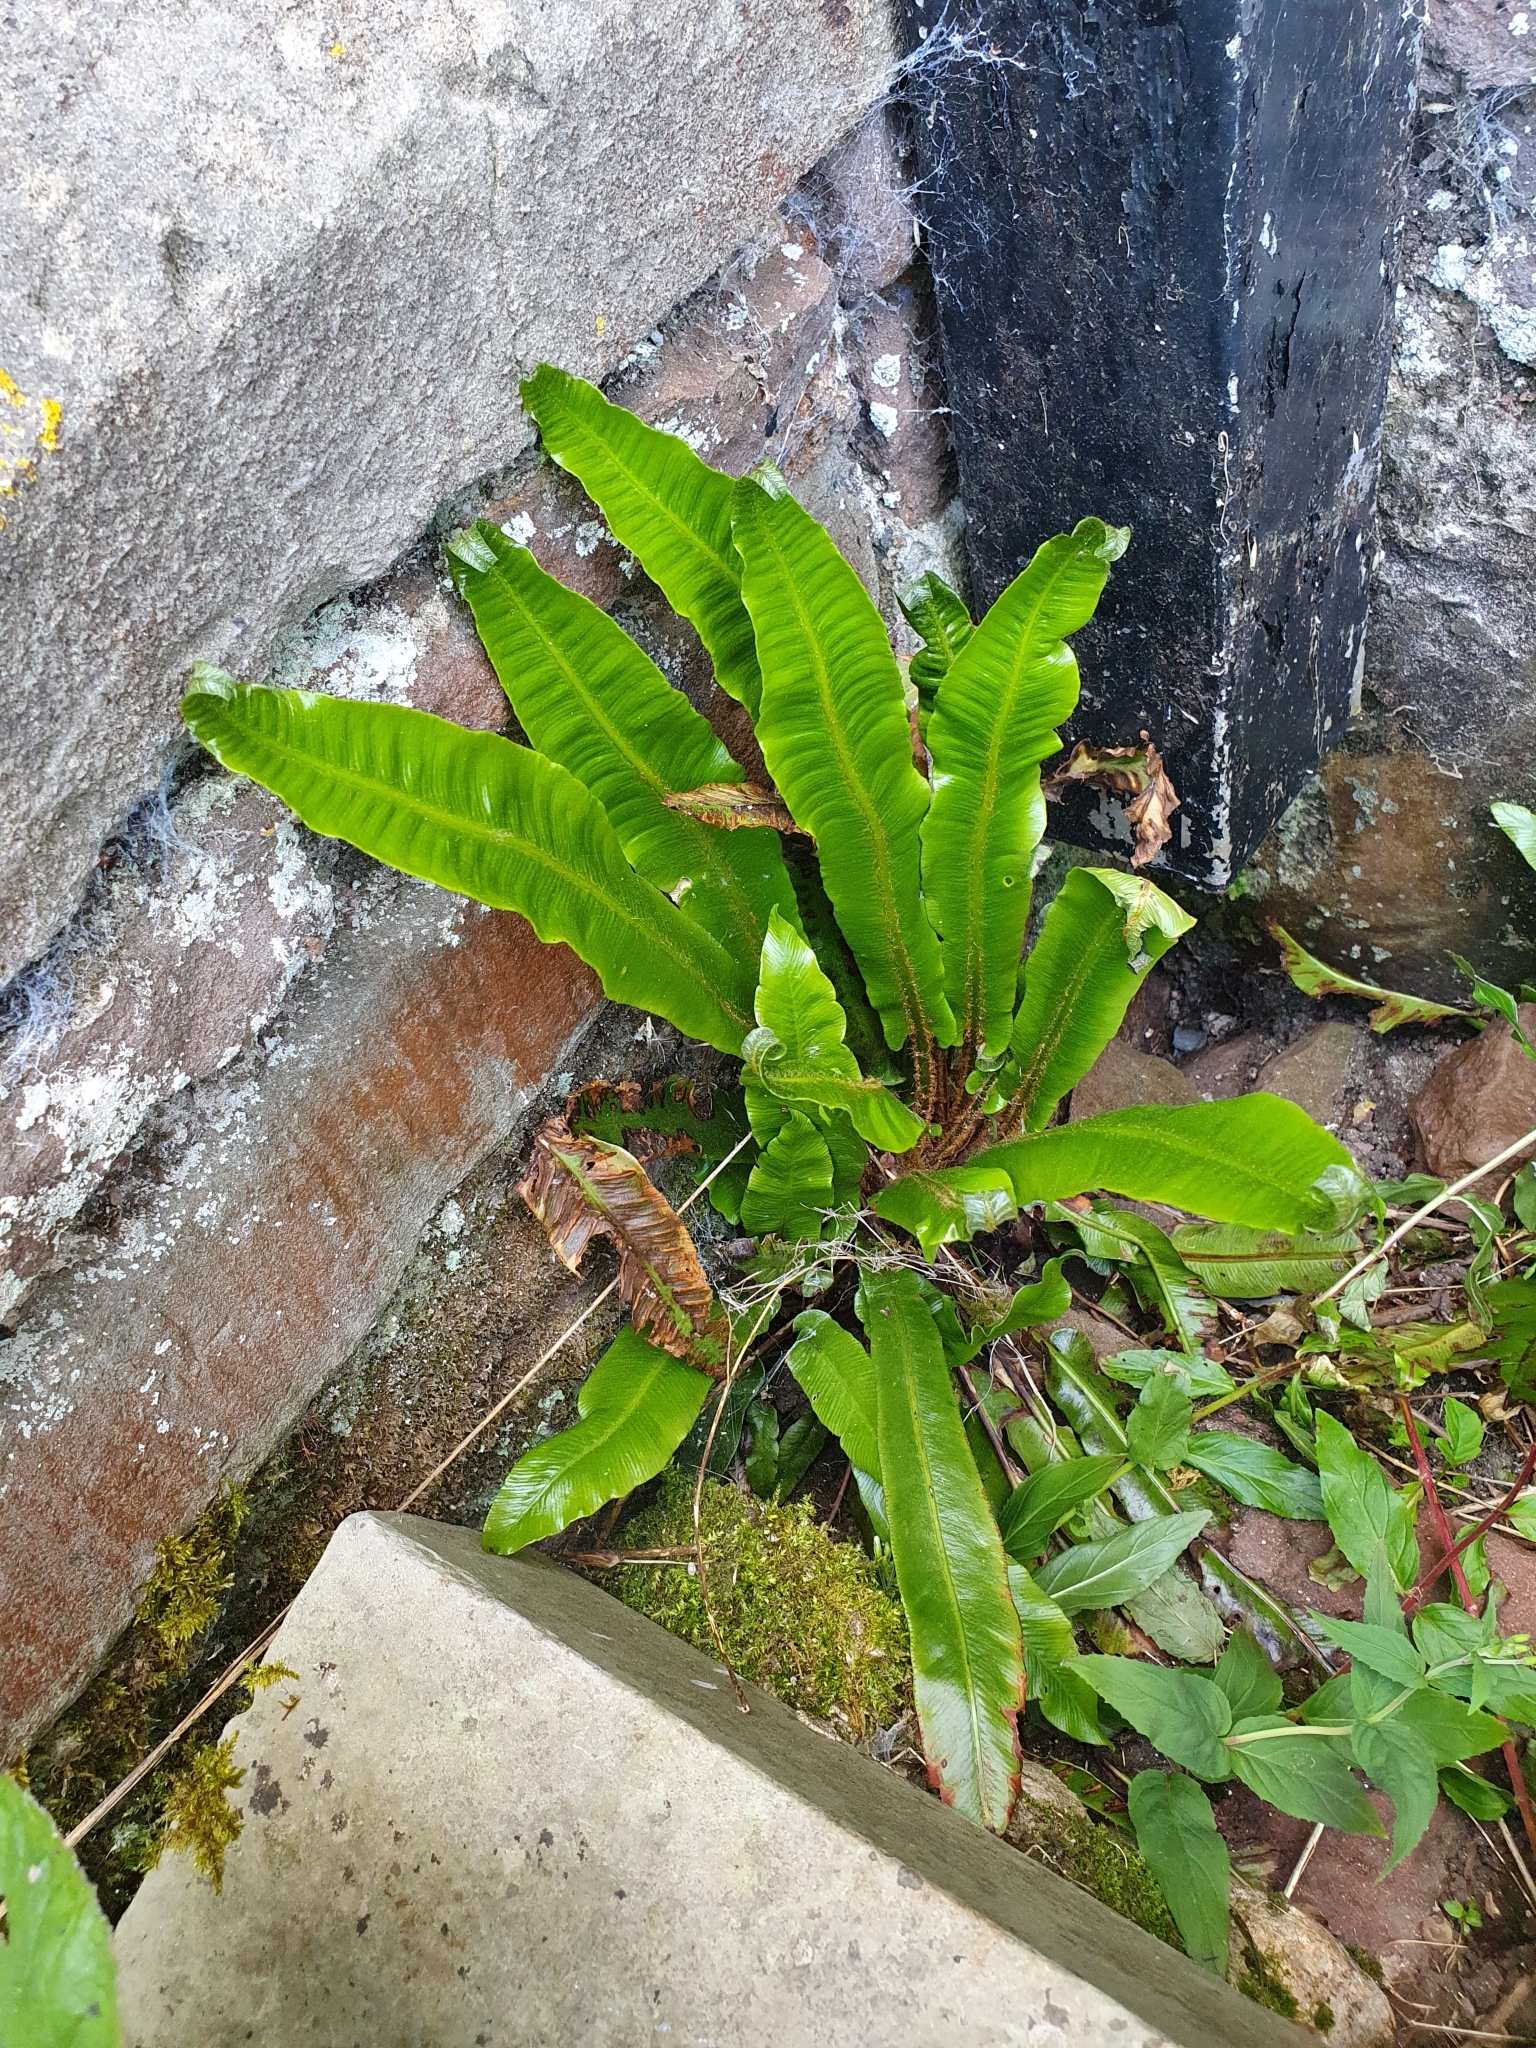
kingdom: Plantae
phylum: Tracheophyta
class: Polypodiopsida
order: Polypodiales
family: Aspleniaceae
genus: Asplenium
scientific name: Asplenium scolopendrium
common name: Hart's-tongue fern
